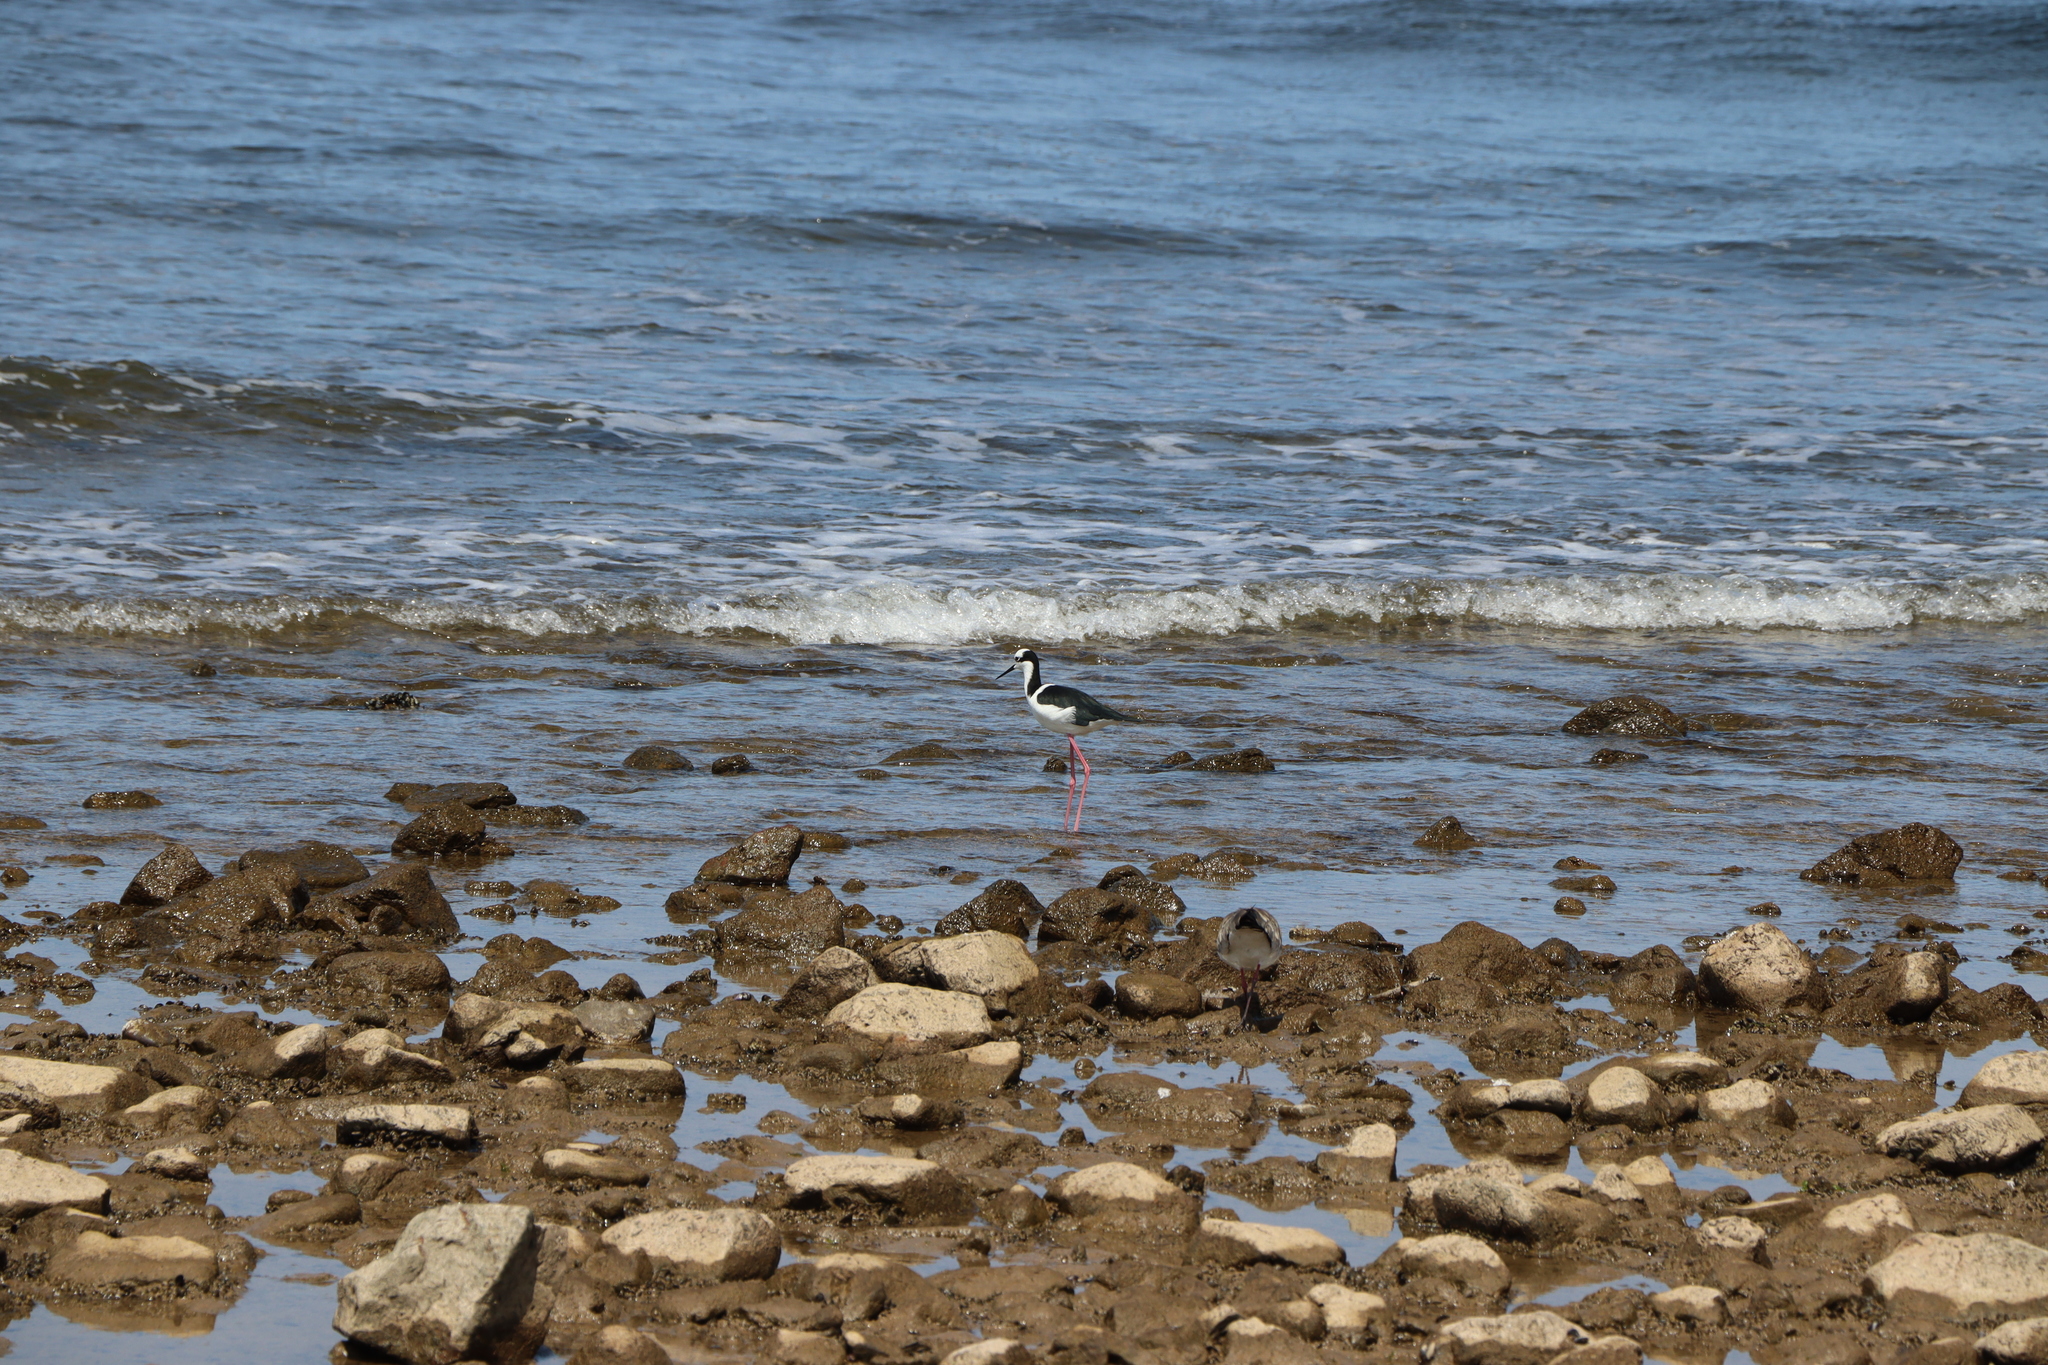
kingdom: Animalia
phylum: Chordata
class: Aves
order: Charadriiformes
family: Recurvirostridae
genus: Himantopus
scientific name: Himantopus mexicanus
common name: Black-necked stilt
